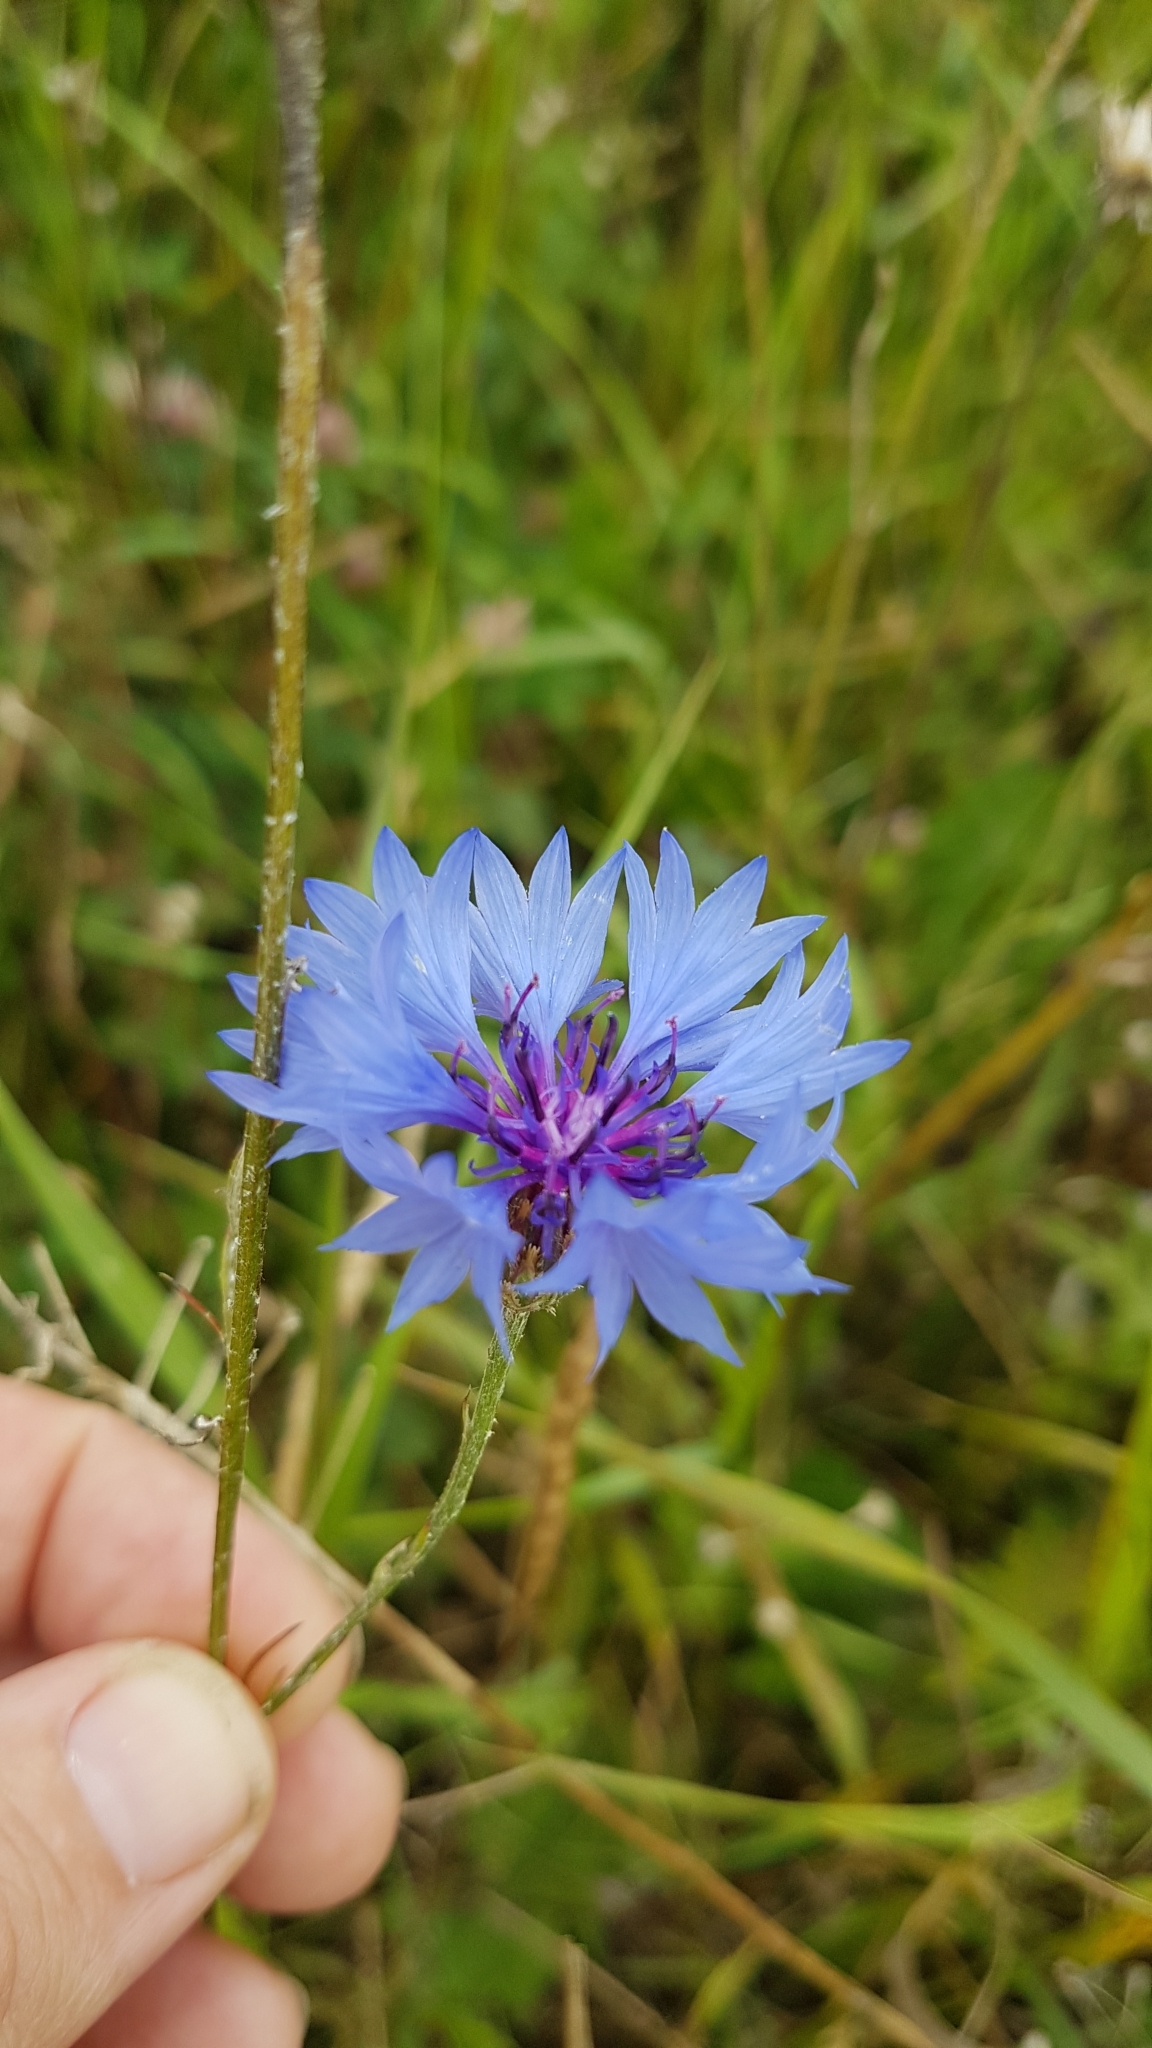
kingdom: Plantae
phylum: Tracheophyta
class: Magnoliopsida
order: Asterales
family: Asteraceae
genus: Centaurea
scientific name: Centaurea cyanus
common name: Cornflower
